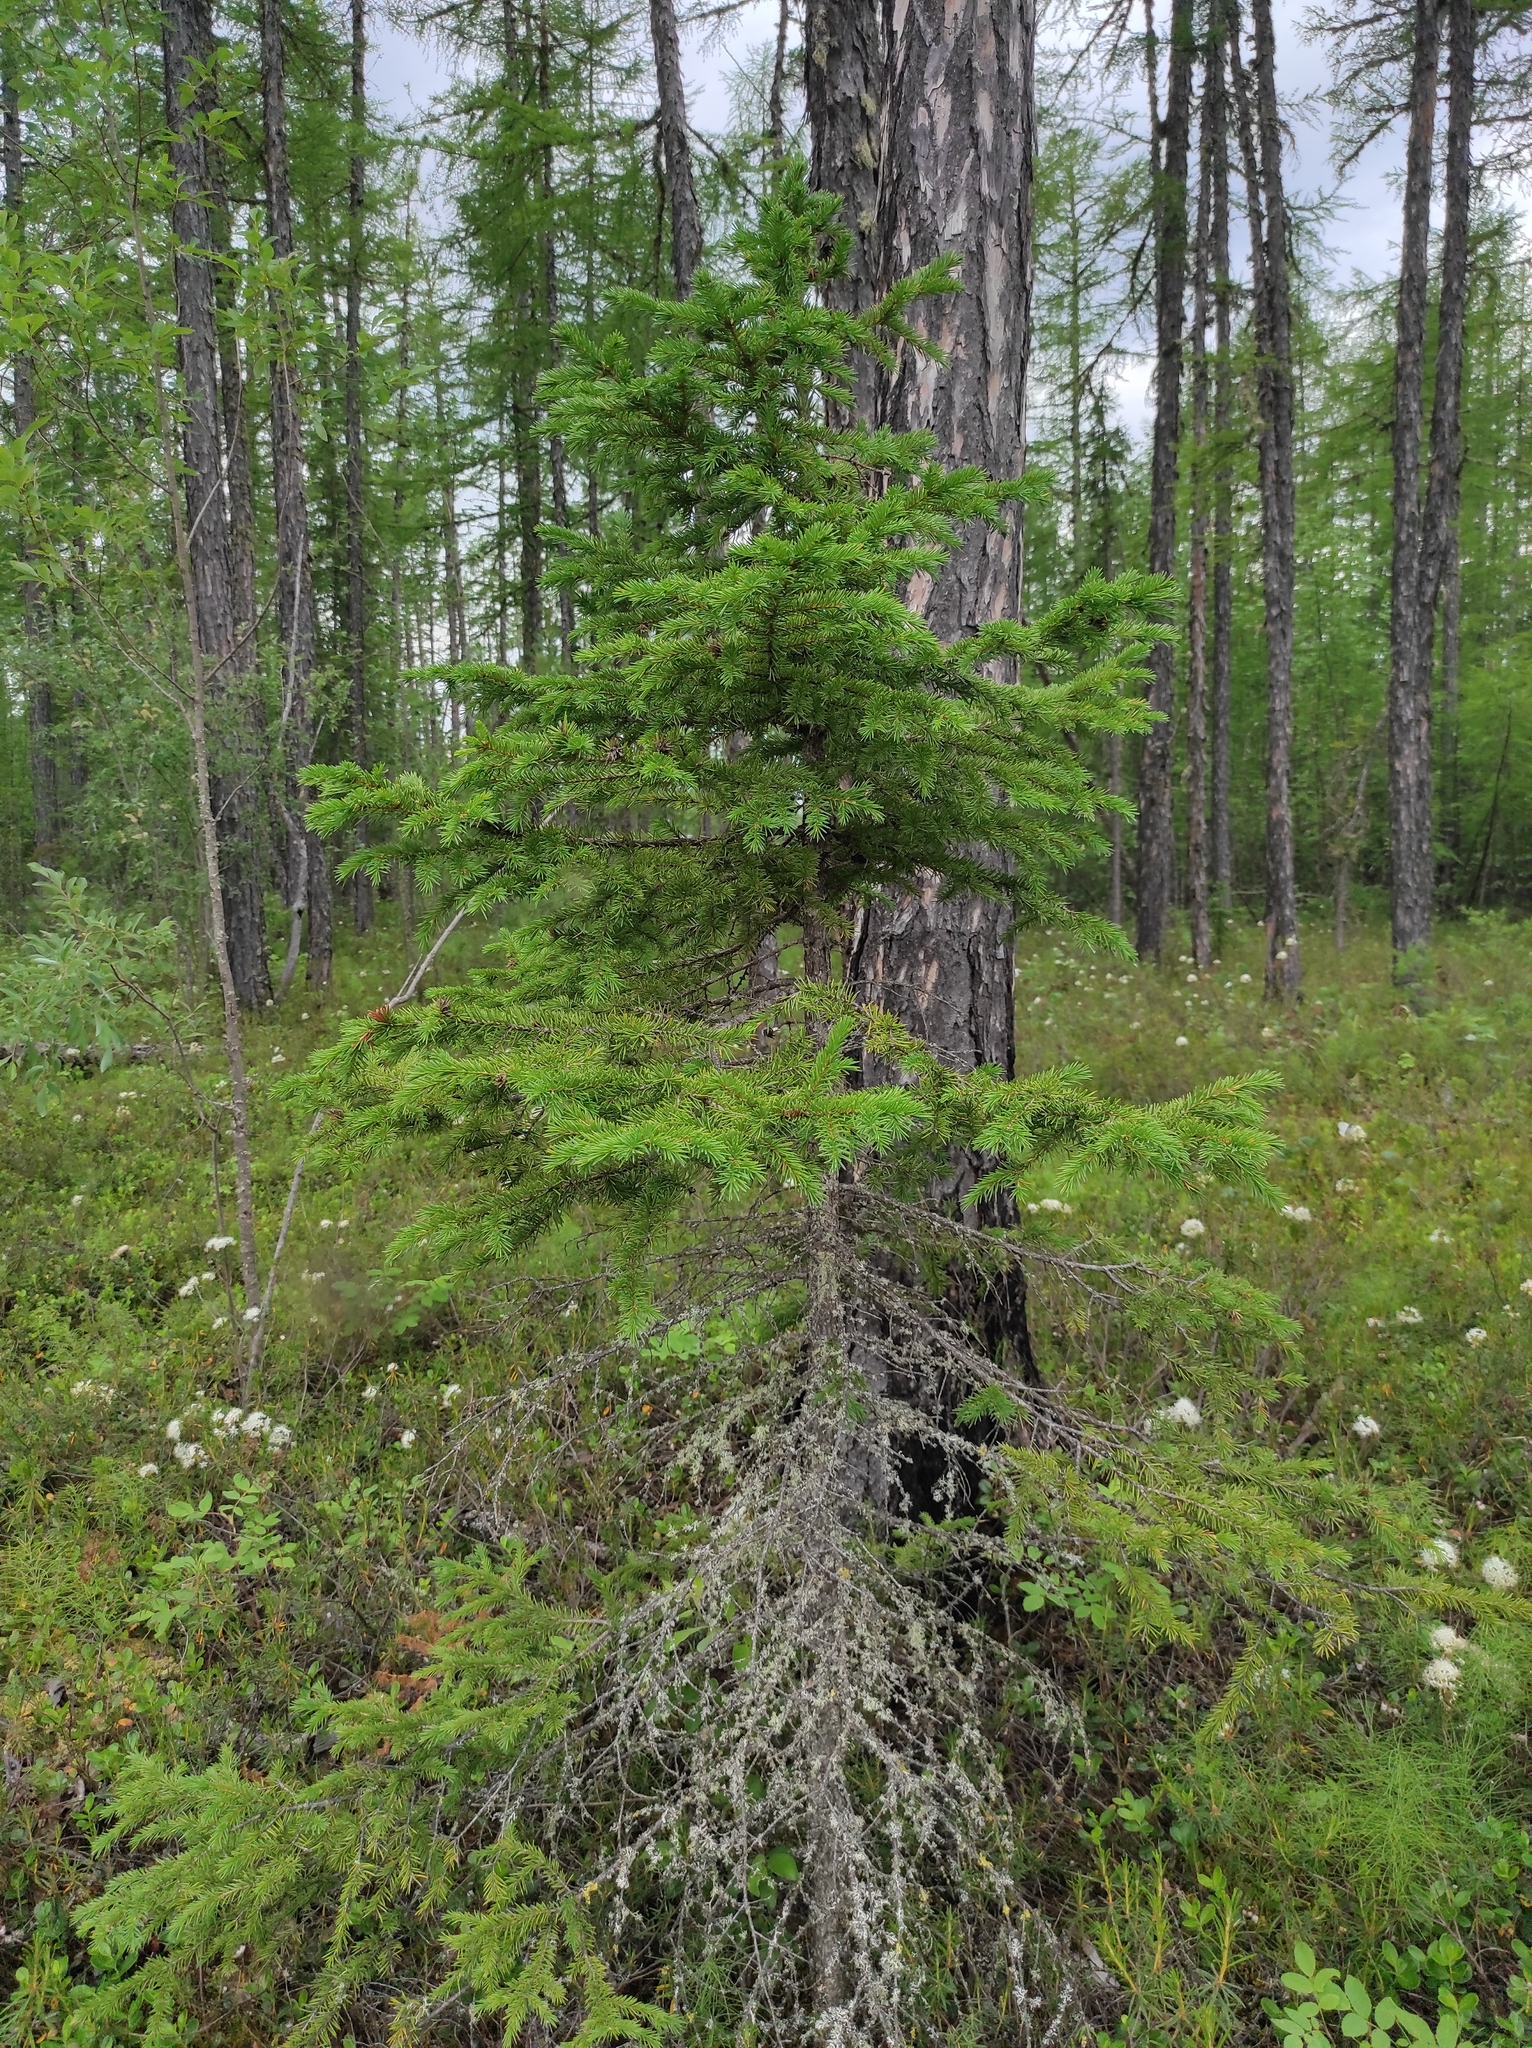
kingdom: Plantae
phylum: Tracheophyta
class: Pinopsida
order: Pinales
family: Pinaceae
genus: Larix
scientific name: Larix gmelinii
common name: Dahurian larch
